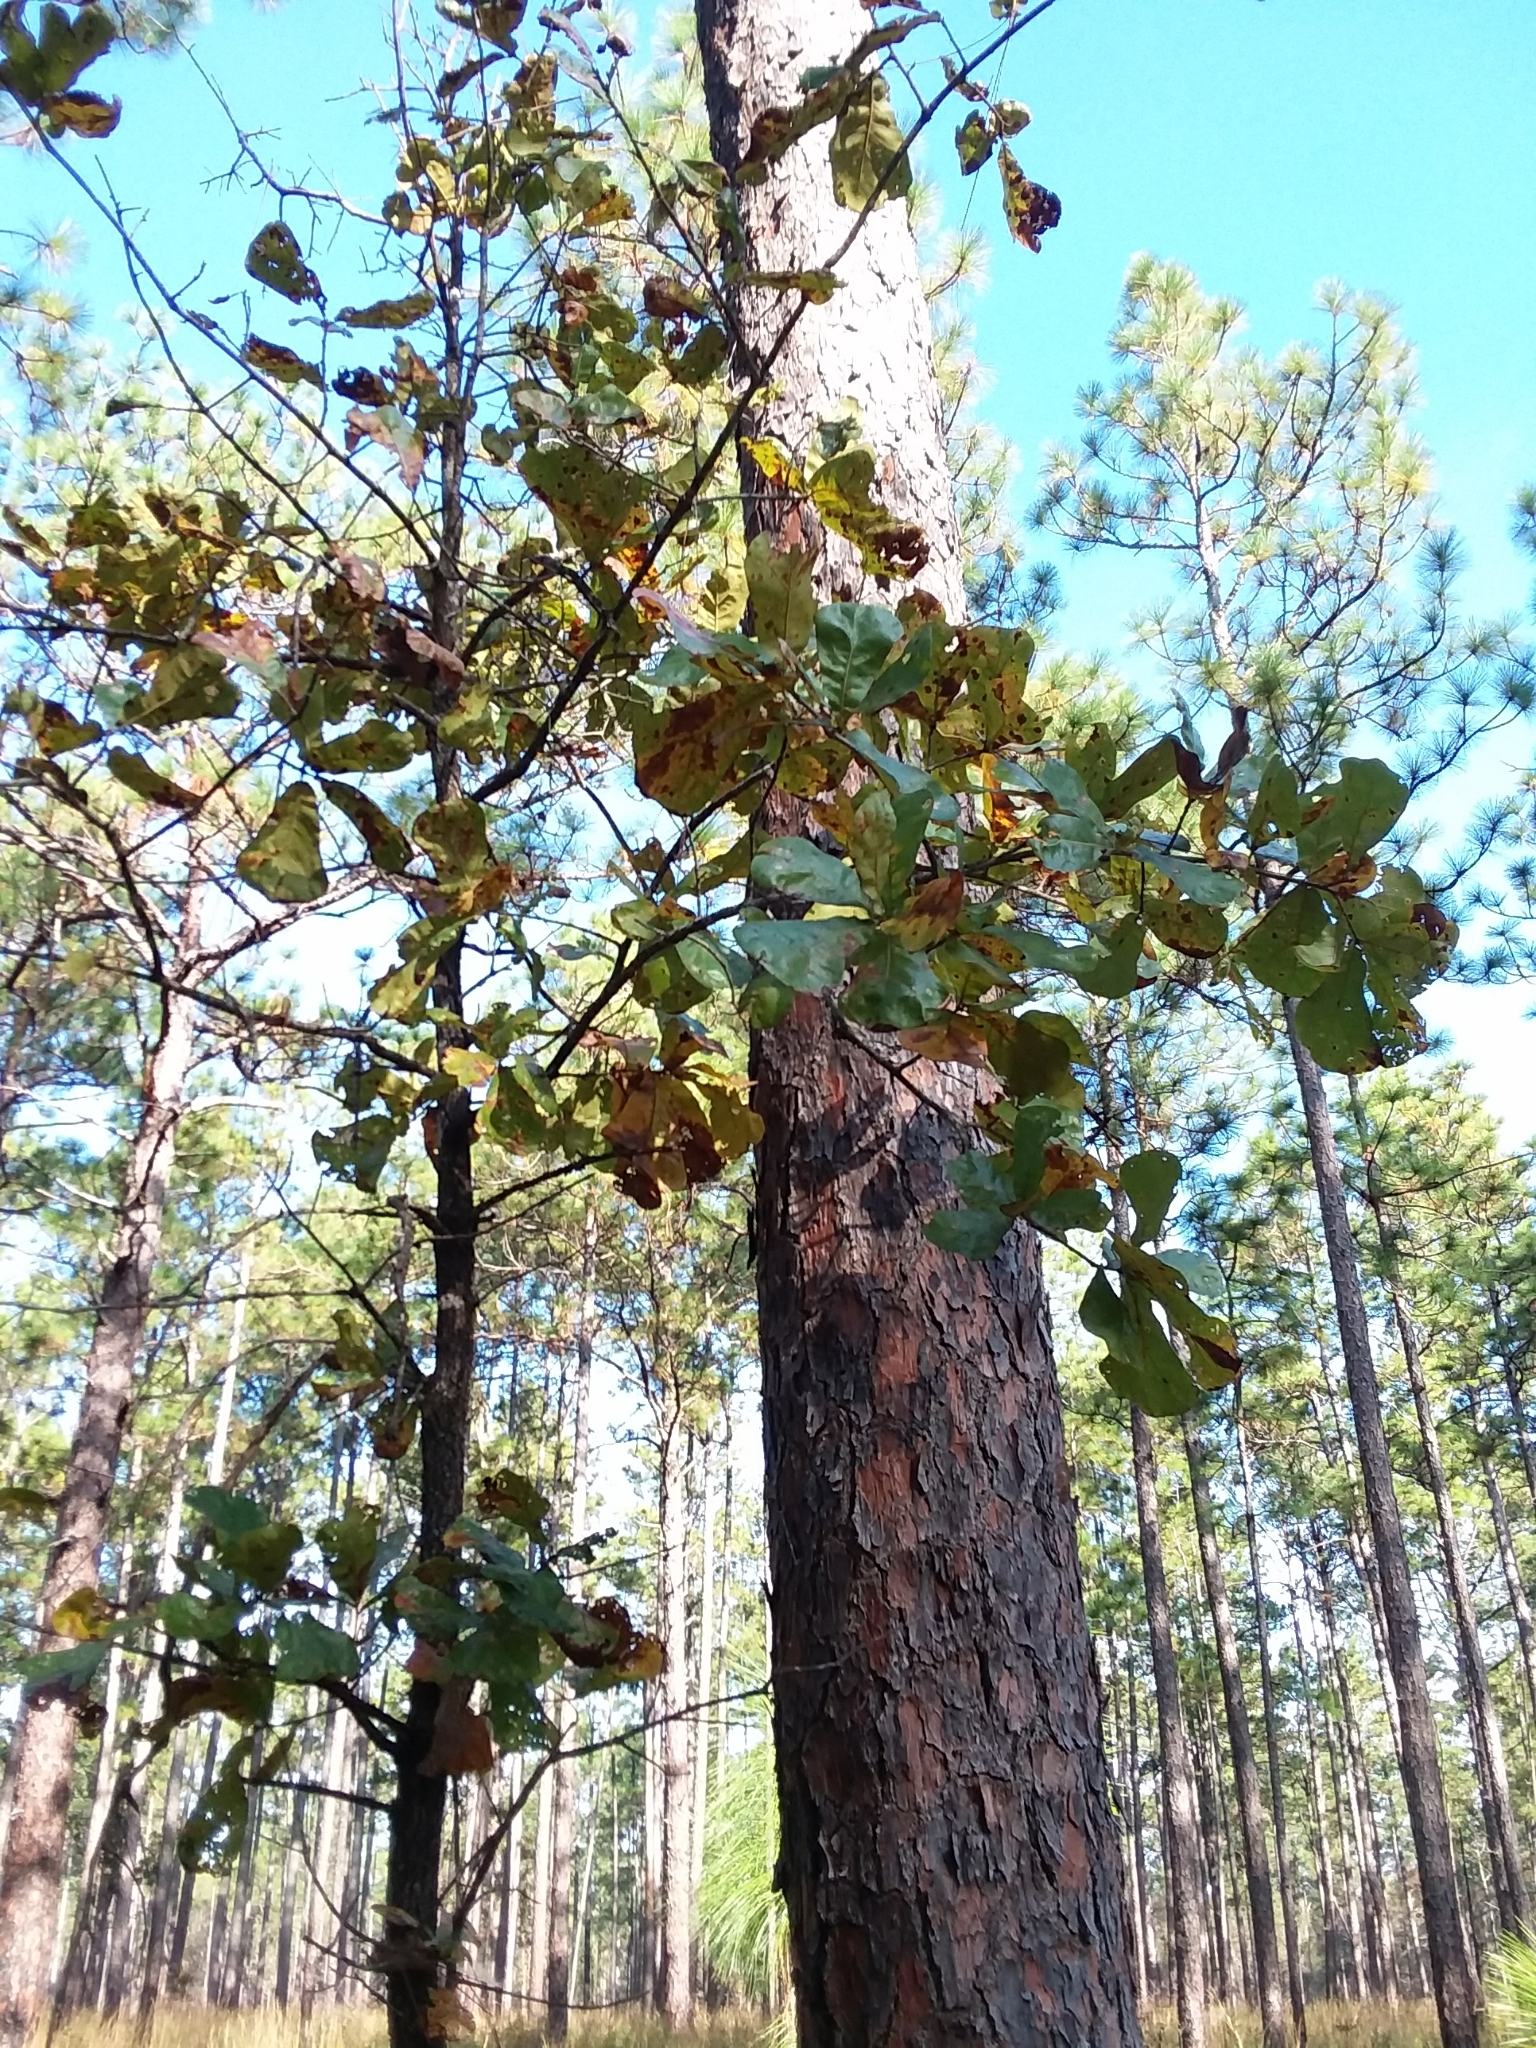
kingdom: Plantae
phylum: Tracheophyta
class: Magnoliopsida
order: Fagales
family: Fagaceae
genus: Quercus
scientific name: Quercus marilandica
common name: Blackjack oak
